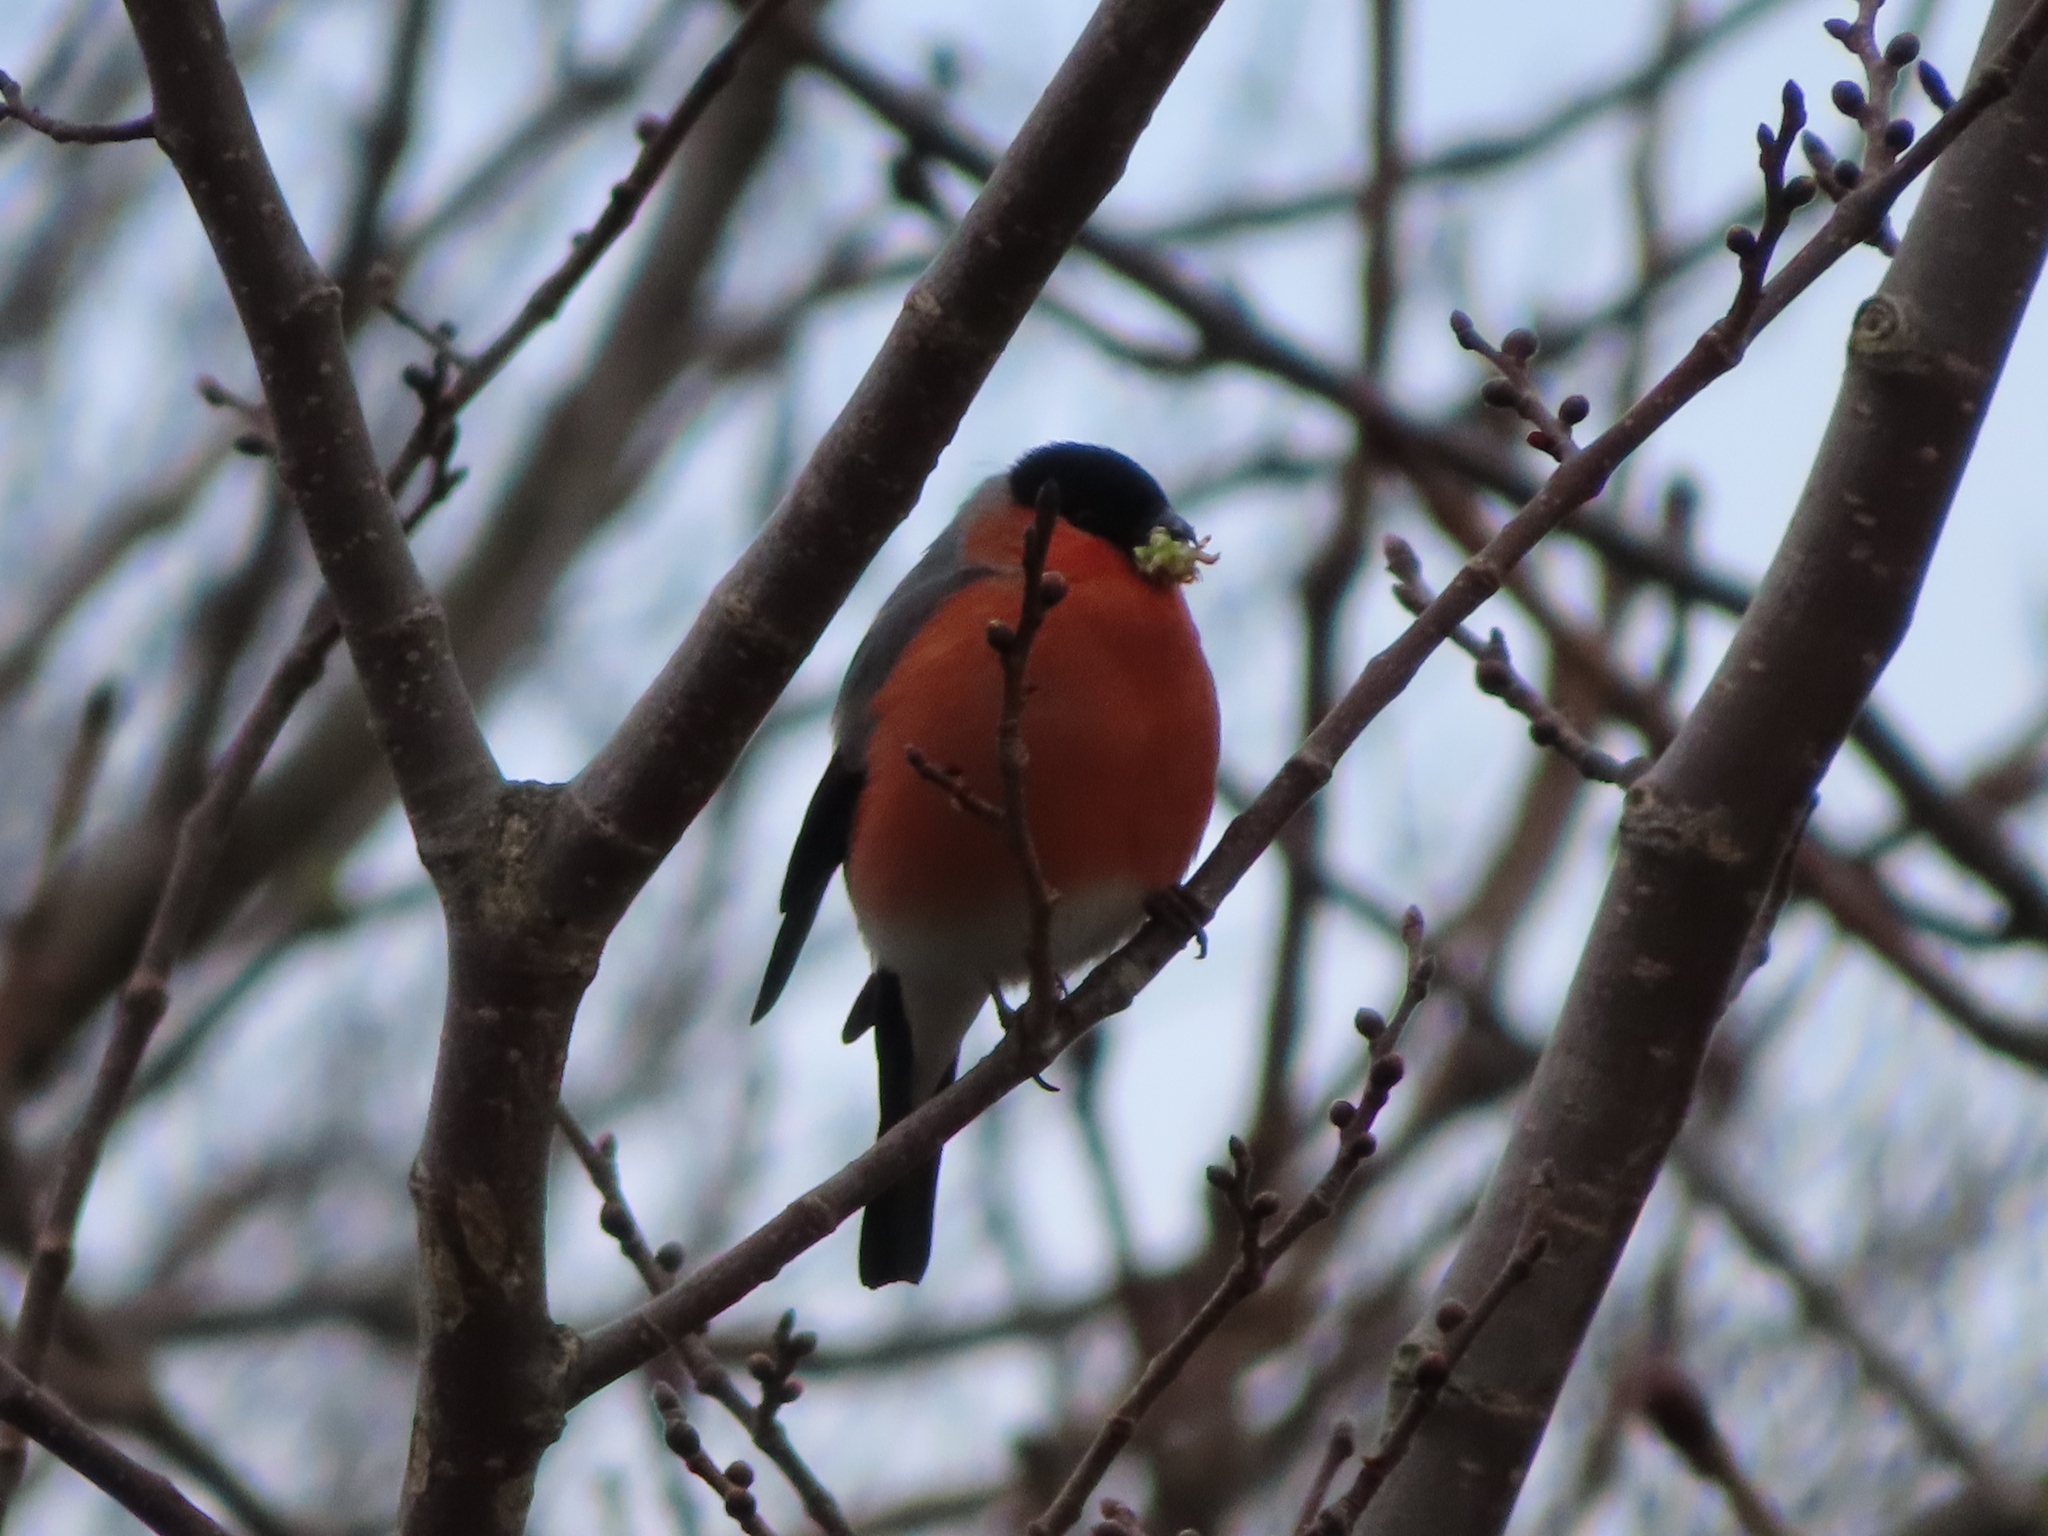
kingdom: Animalia
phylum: Chordata
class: Aves
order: Passeriformes
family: Fringillidae
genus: Pyrrhula
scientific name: Pyrrhula pyrrhula
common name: Eurasian bullfinch
